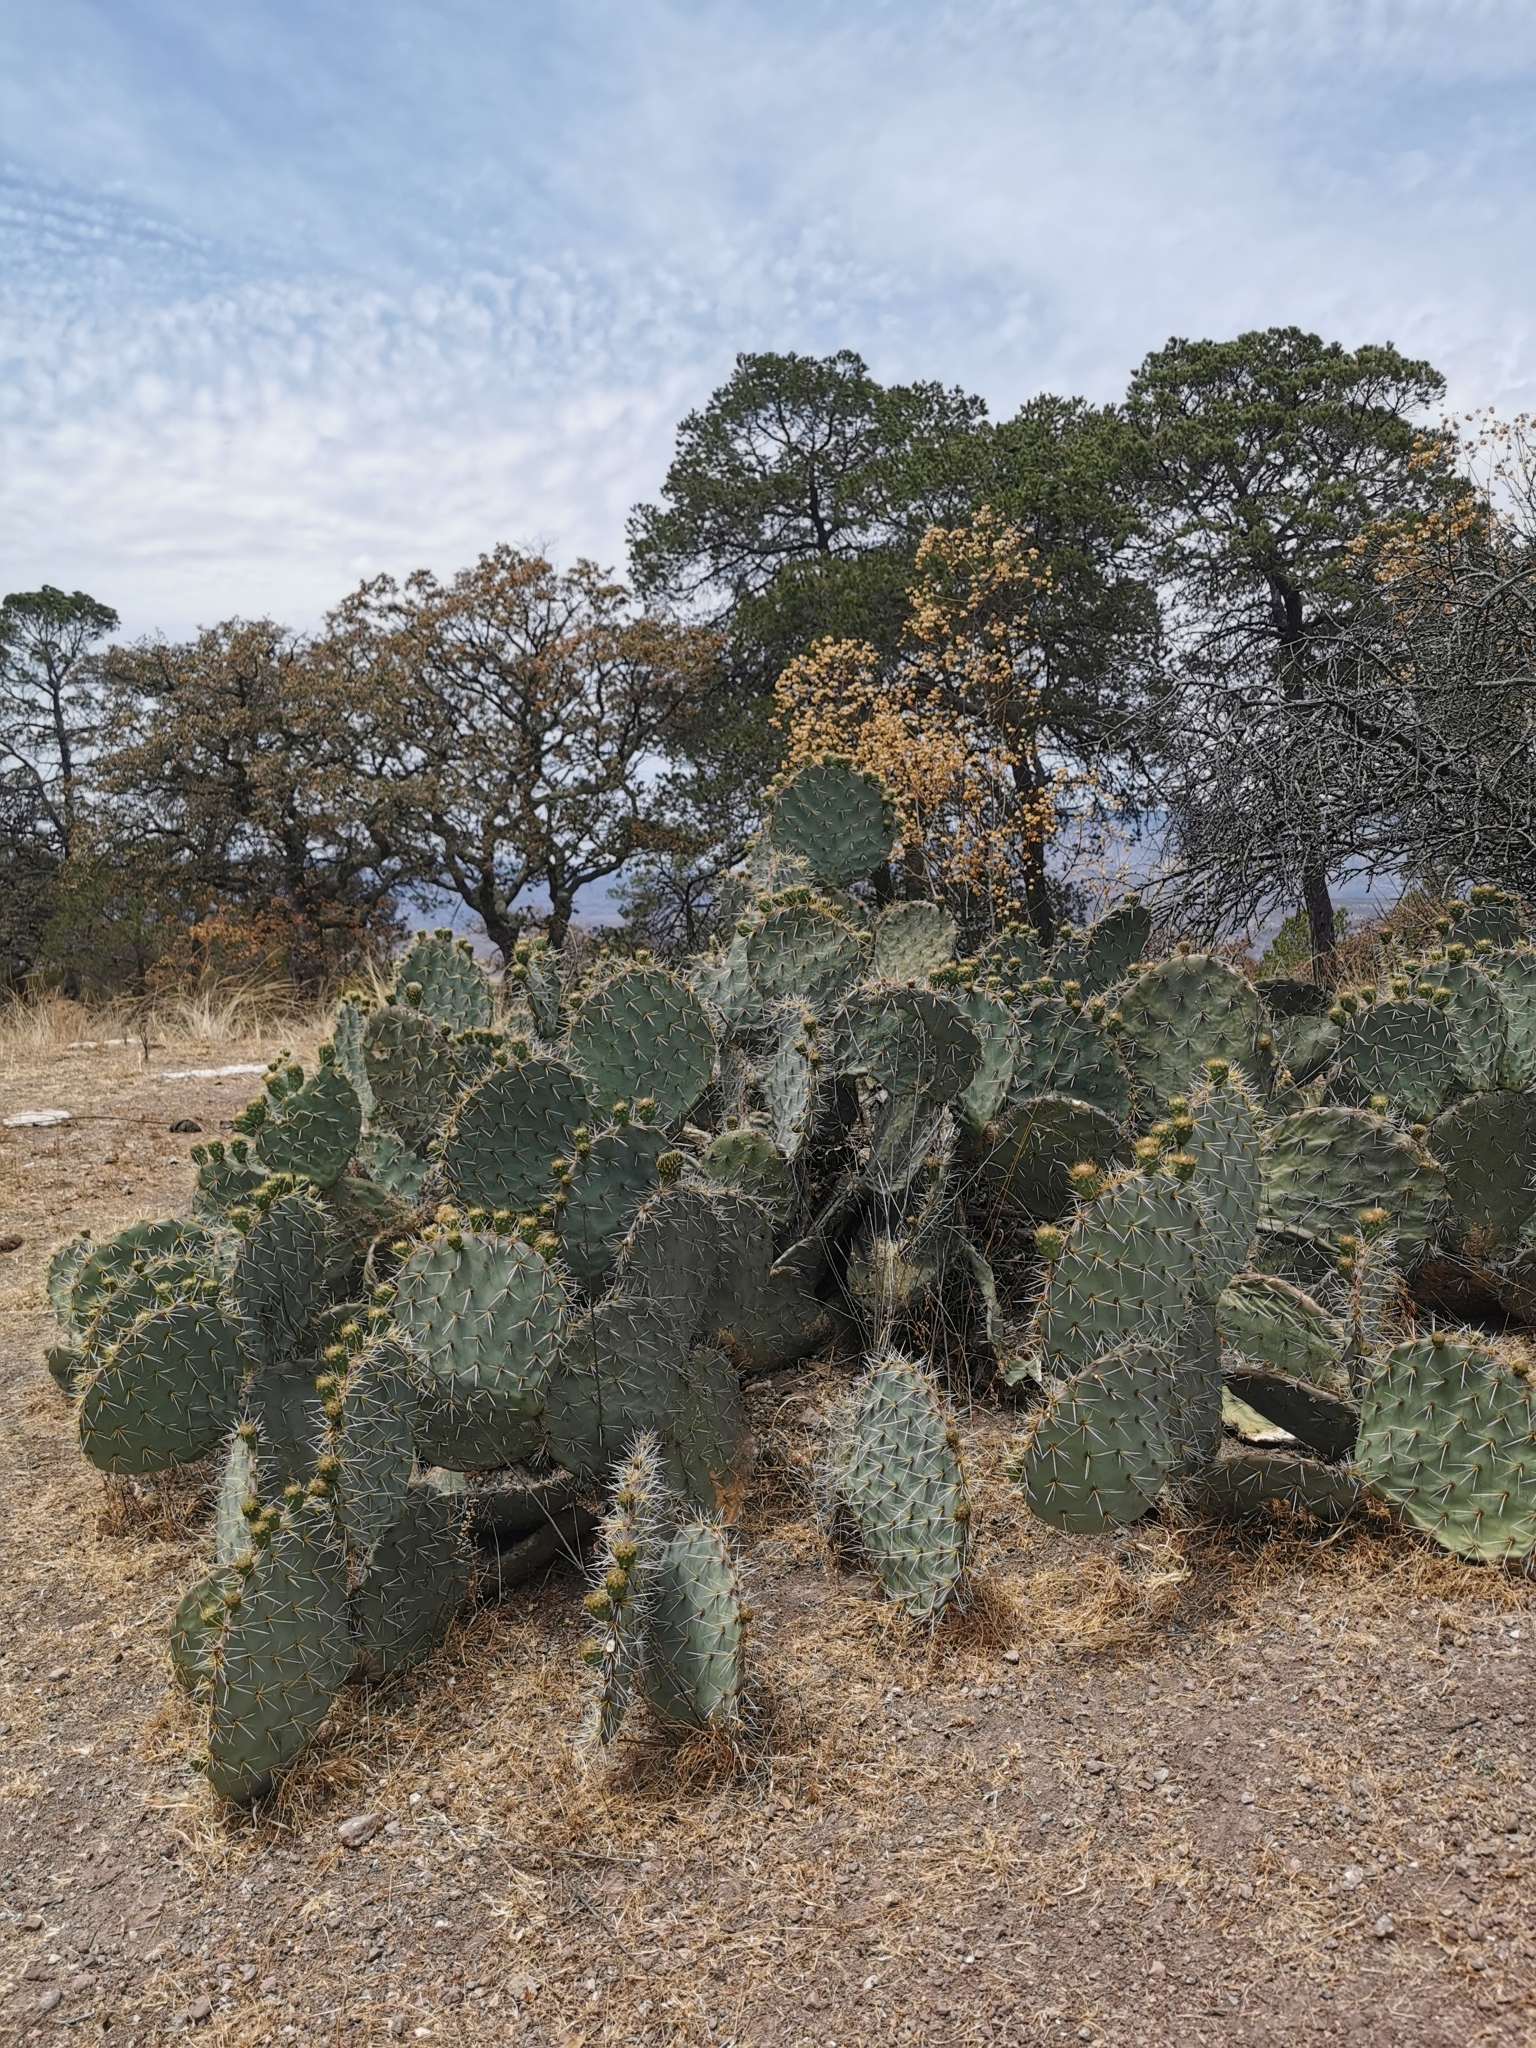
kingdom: Plantae
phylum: Tracheophyta
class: Magnoliopsida
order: Caryophyllales
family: Cactaceae
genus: Opuntia
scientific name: Opuntia robusta
